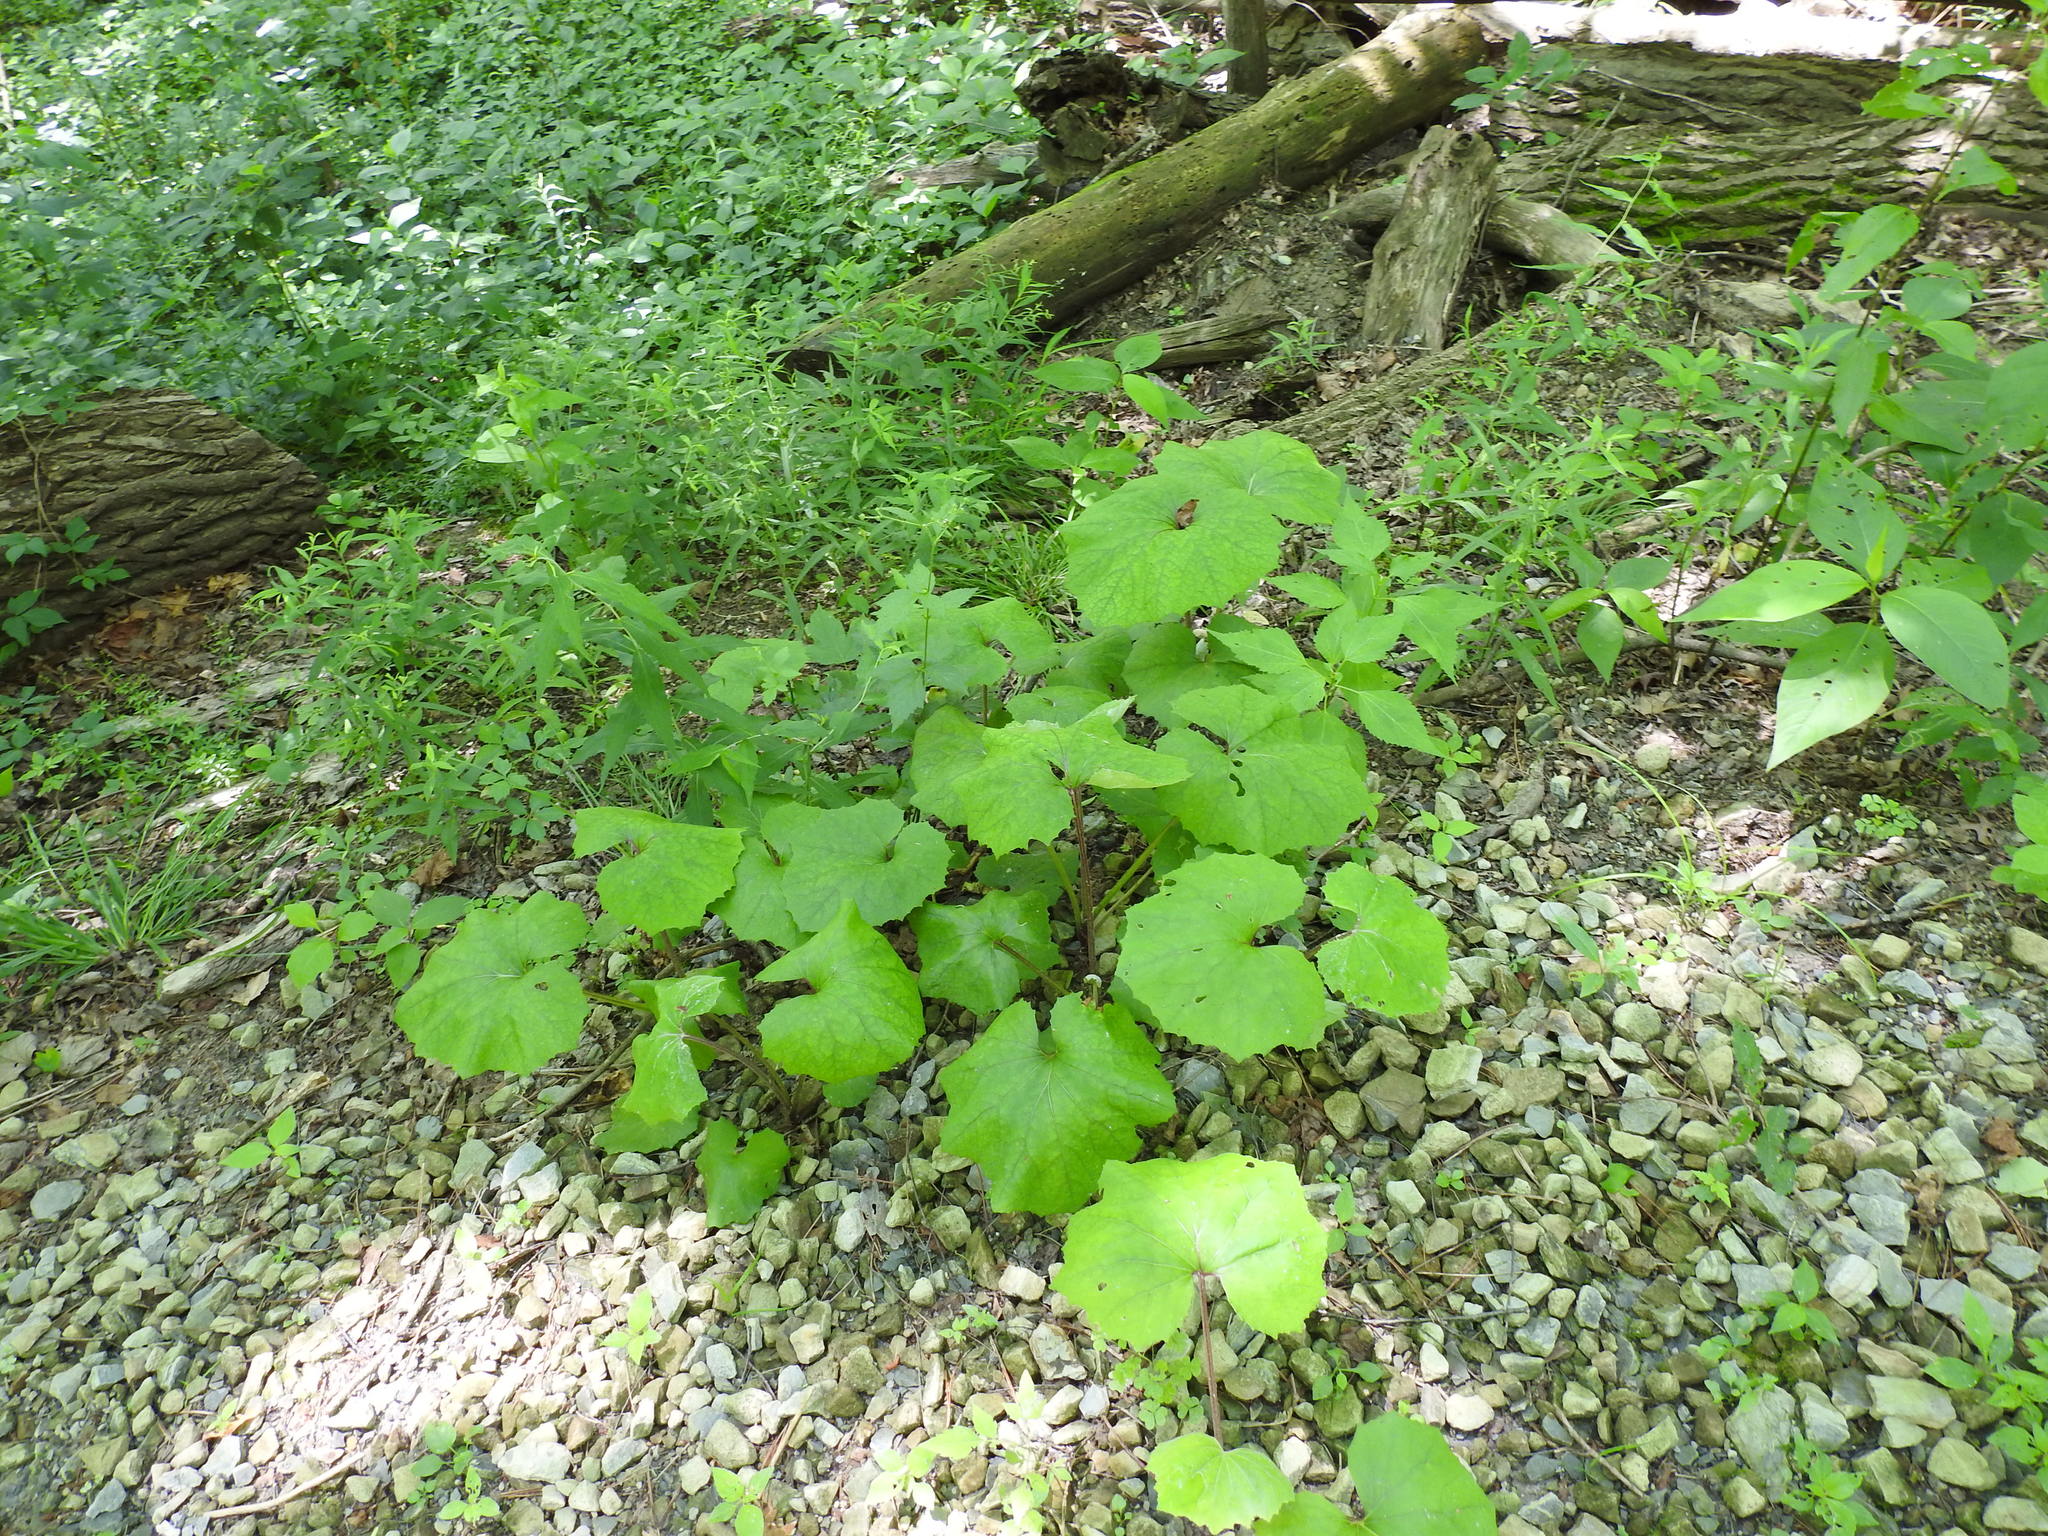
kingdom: Plantae
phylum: Tracheophyta
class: Magnoliopsida
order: Asterales
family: Asteraceae
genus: Tussilago
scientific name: Tussilago farfara
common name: Coltsfoot
